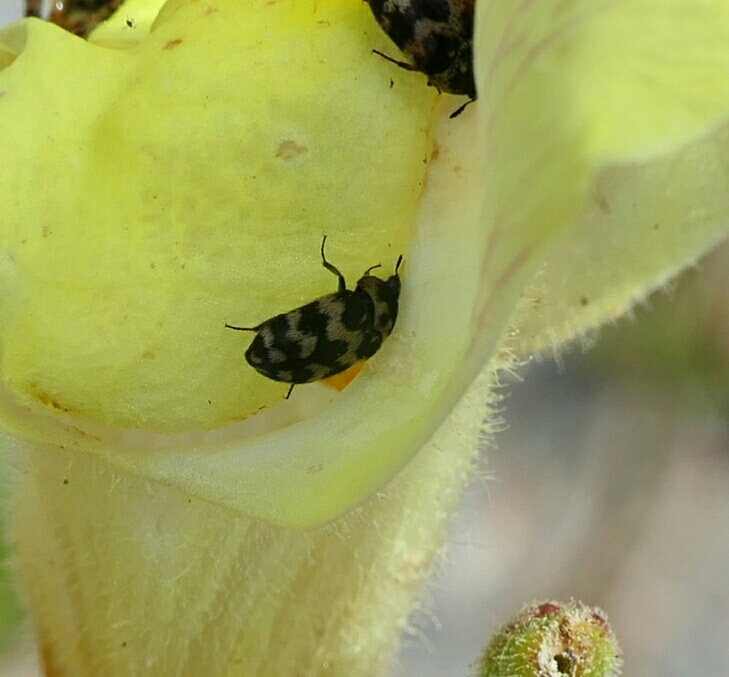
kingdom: Animalia
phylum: Arthropoda
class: Insecta
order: Coleoptera
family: Dermestidae
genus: Attagenus
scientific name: Attagenus trifasciatus
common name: Carpet beetle
